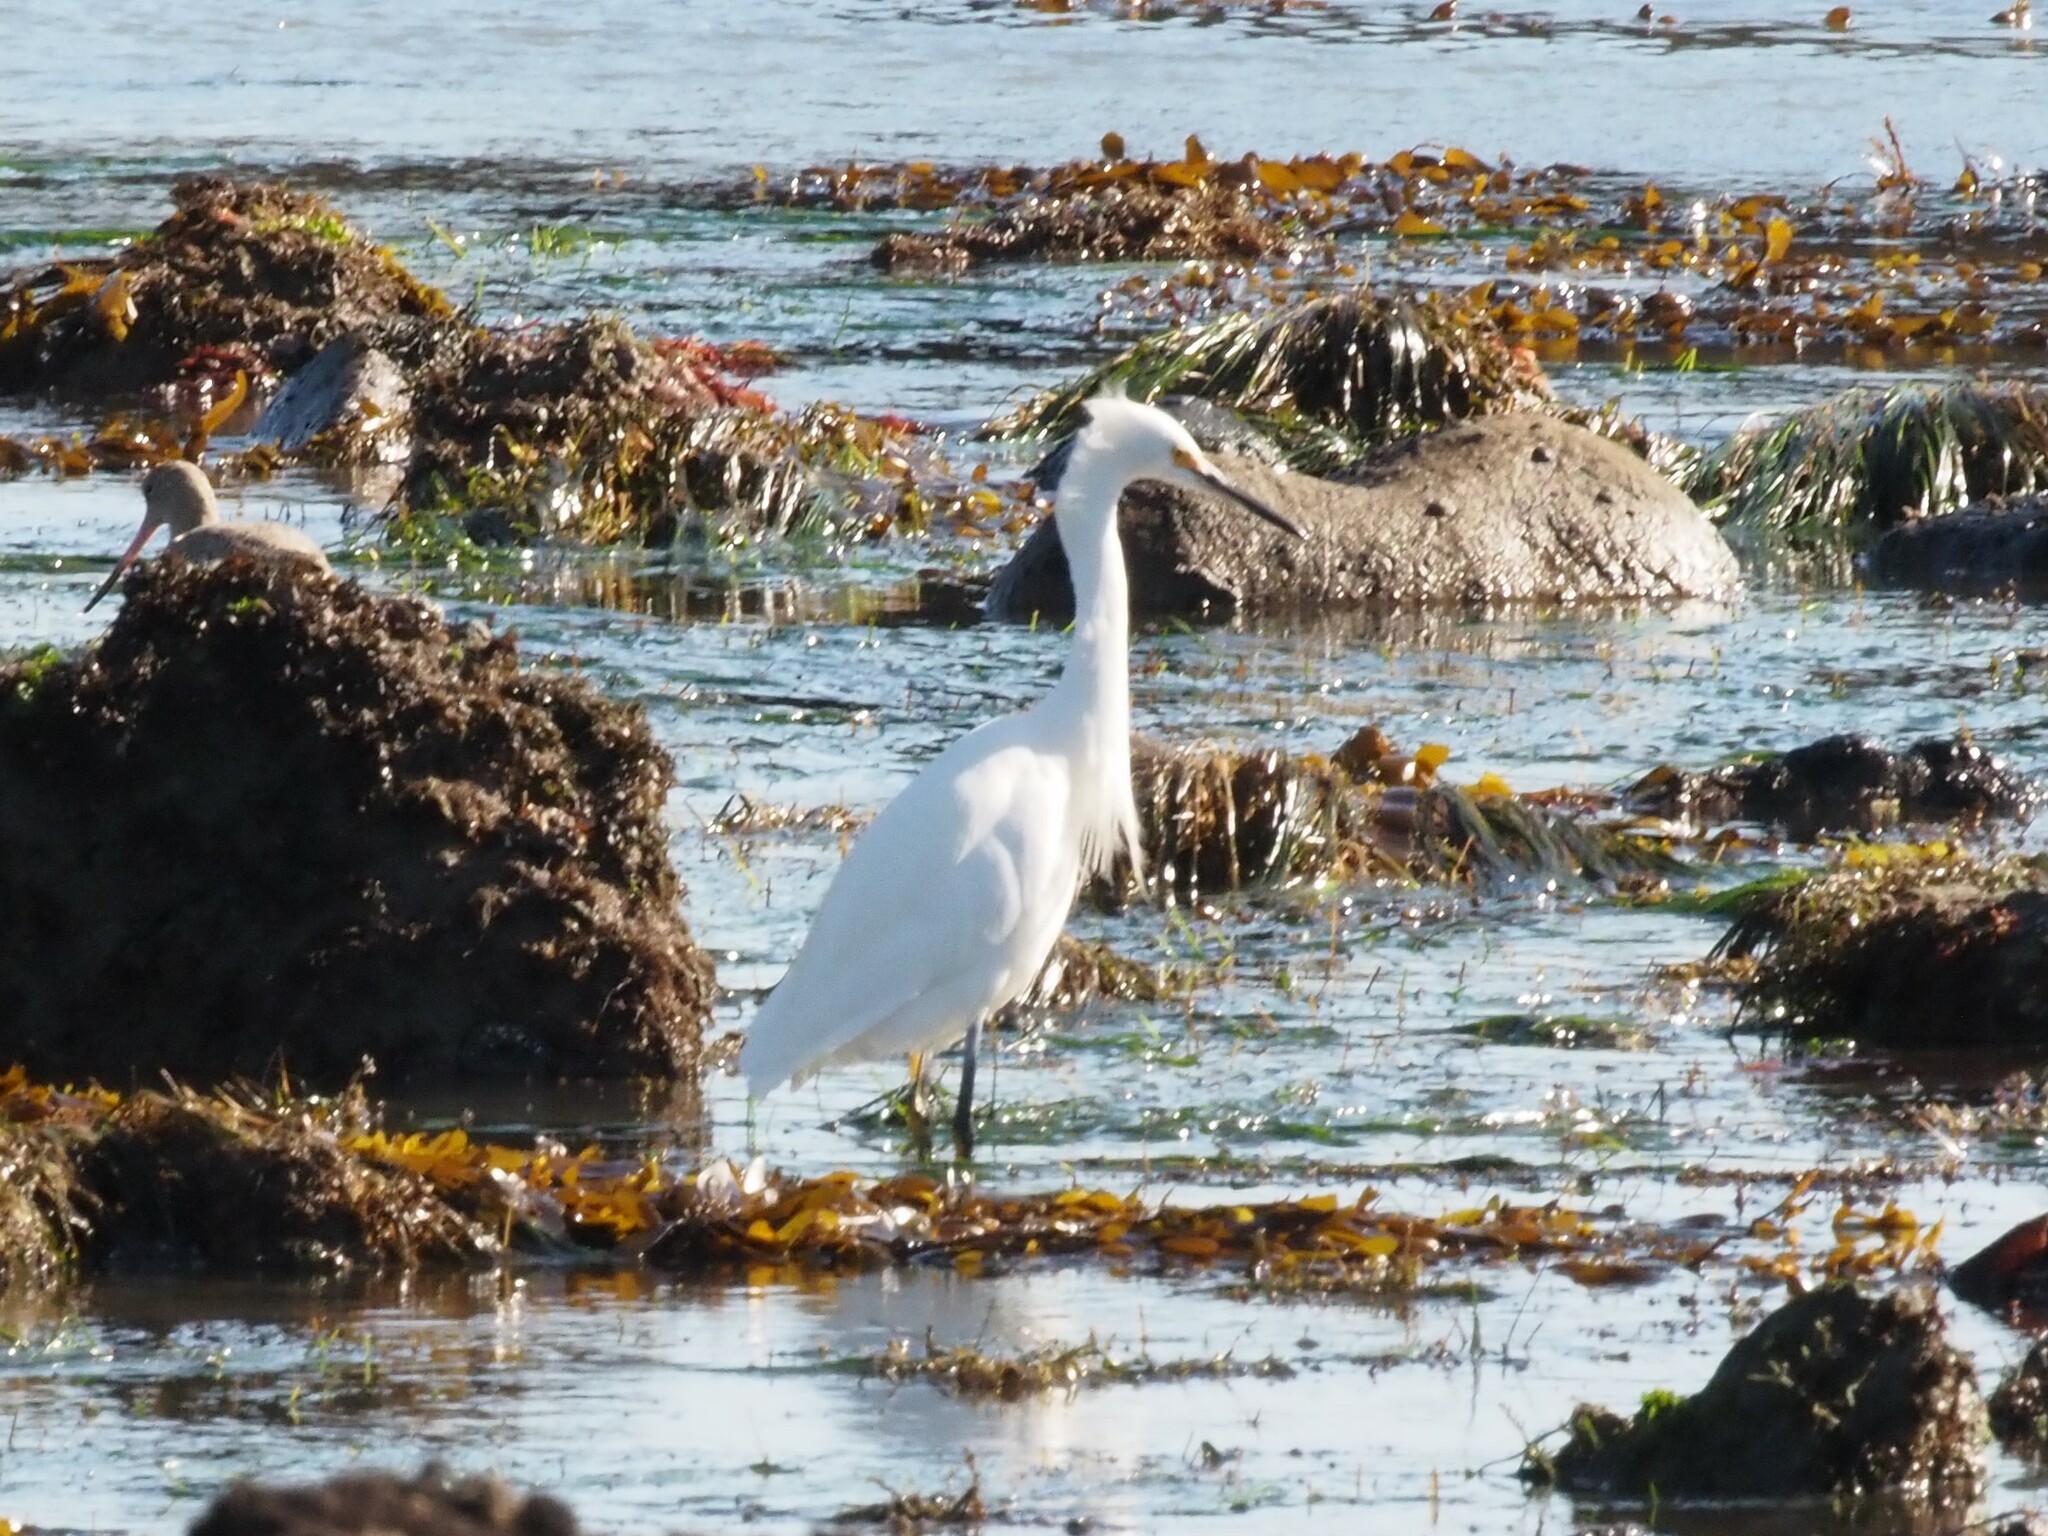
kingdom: Animalia
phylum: Chordata
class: Aves
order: Pelecaniformes
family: Ardeidae
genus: Egretta
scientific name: Egretta thula
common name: Snowy egret
